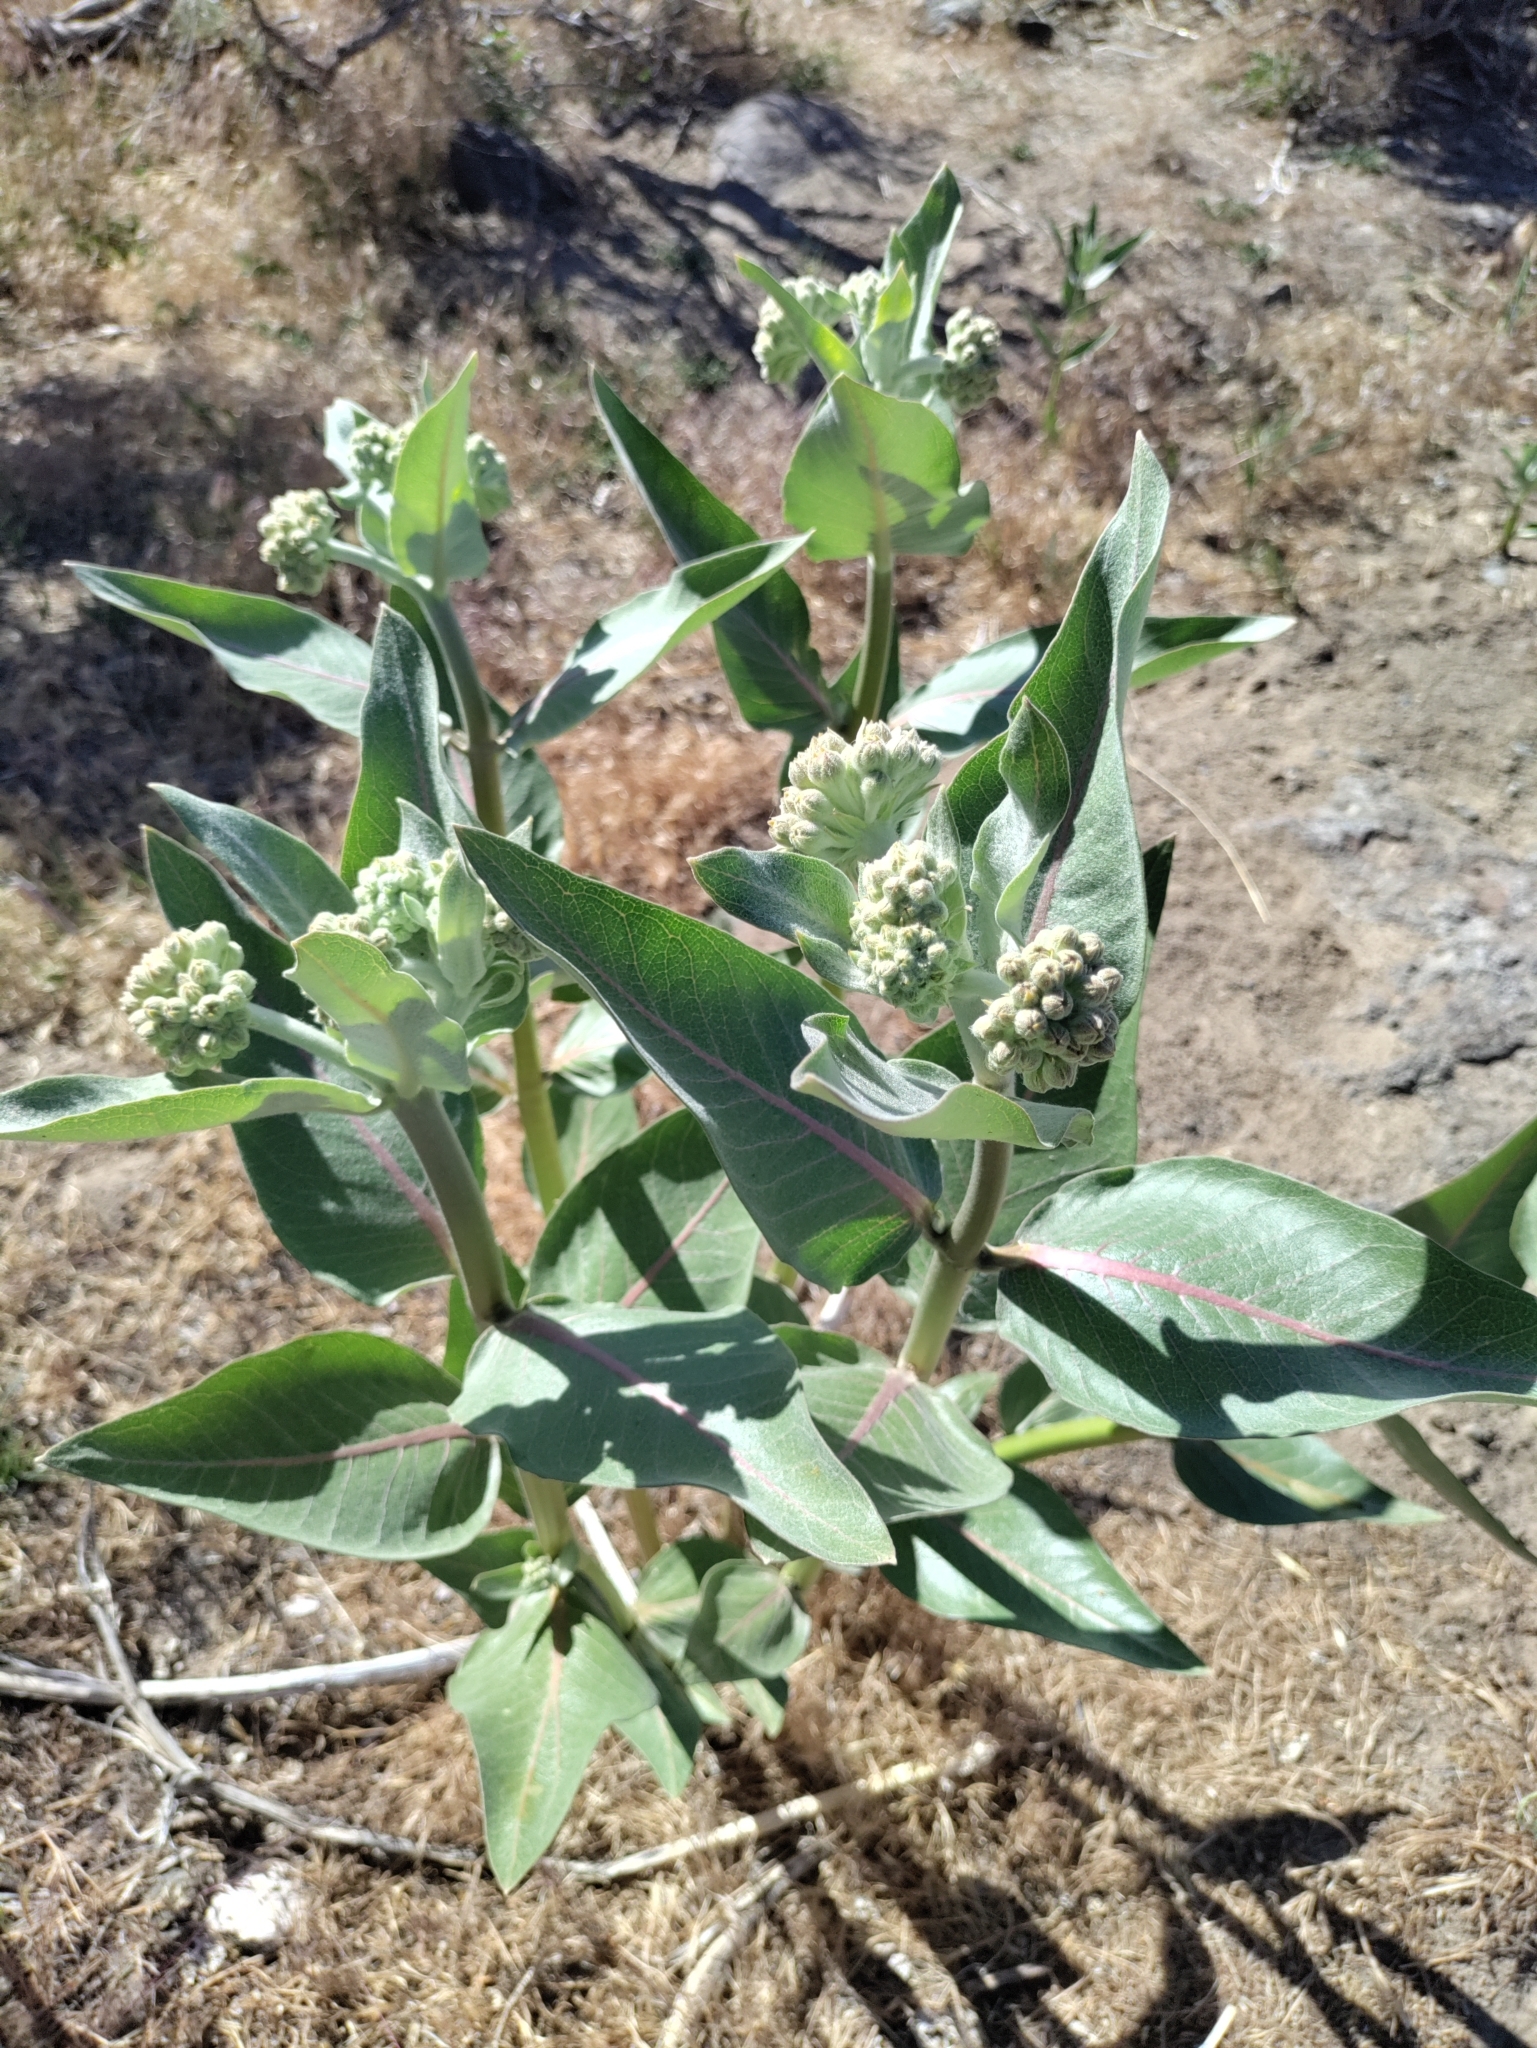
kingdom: Plantae
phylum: Tracheophyta
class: Magnoliopsida
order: Gentianales
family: Apocynaceae
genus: Asclepias
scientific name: Asclepias speciosa
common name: Showy milkweed
